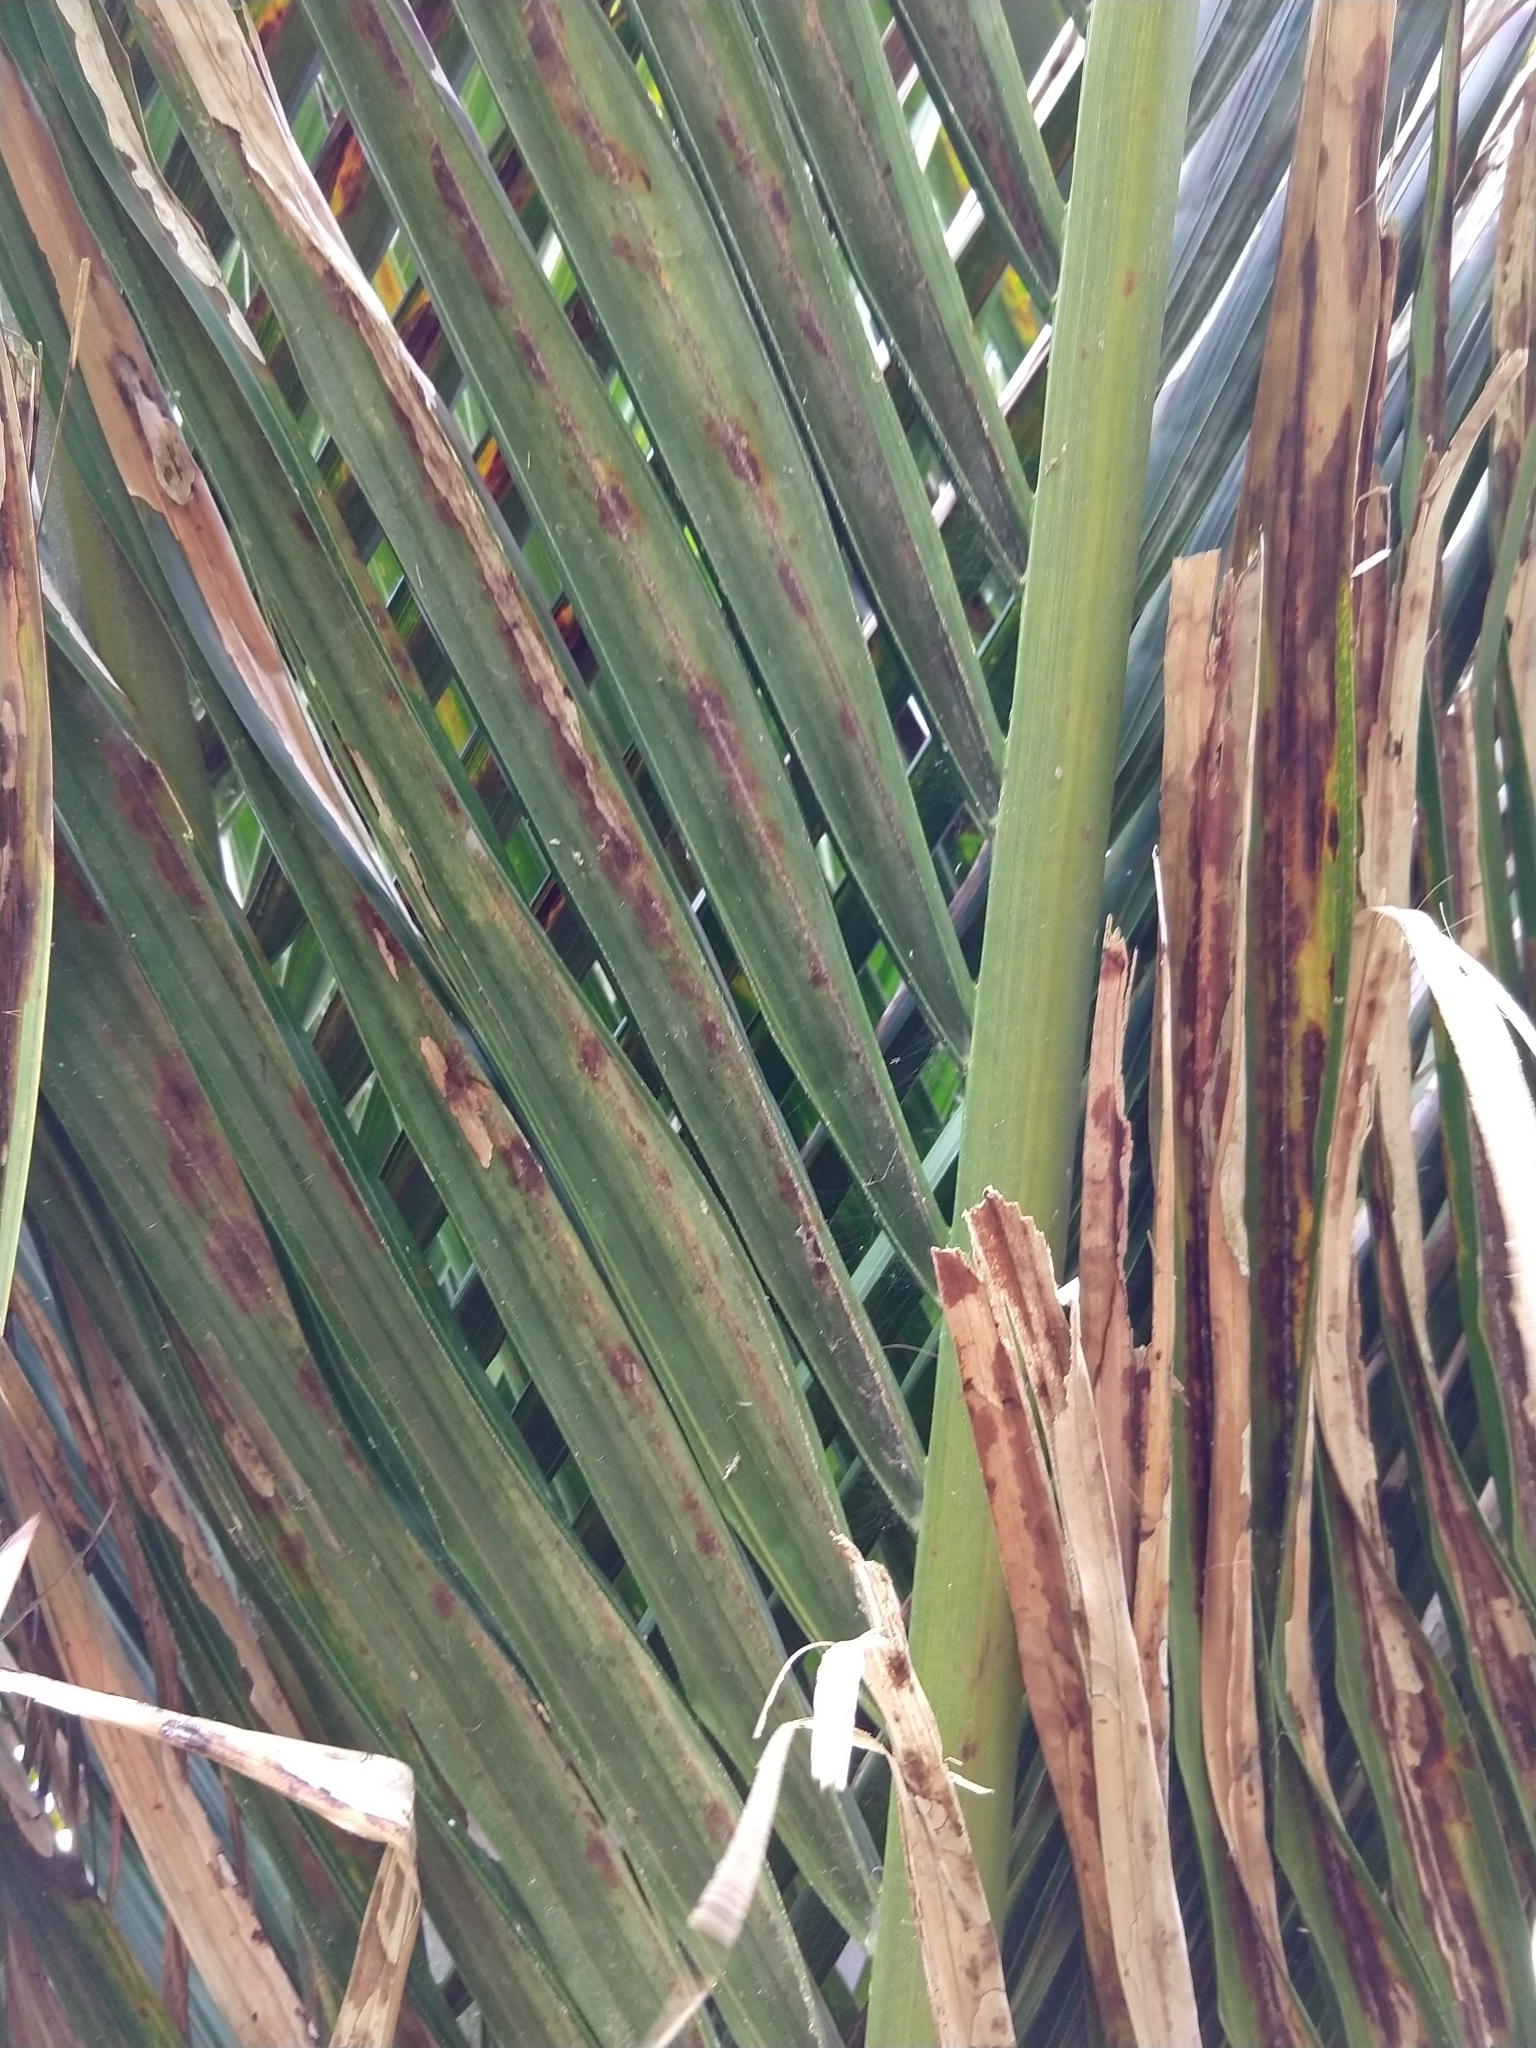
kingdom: Plantae
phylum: Tracheophyta
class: Liliopsida
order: Arecales
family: Arecaceae
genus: Rhopalostylis
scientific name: Rhopalostylis sapida
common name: Feather-duster palm
